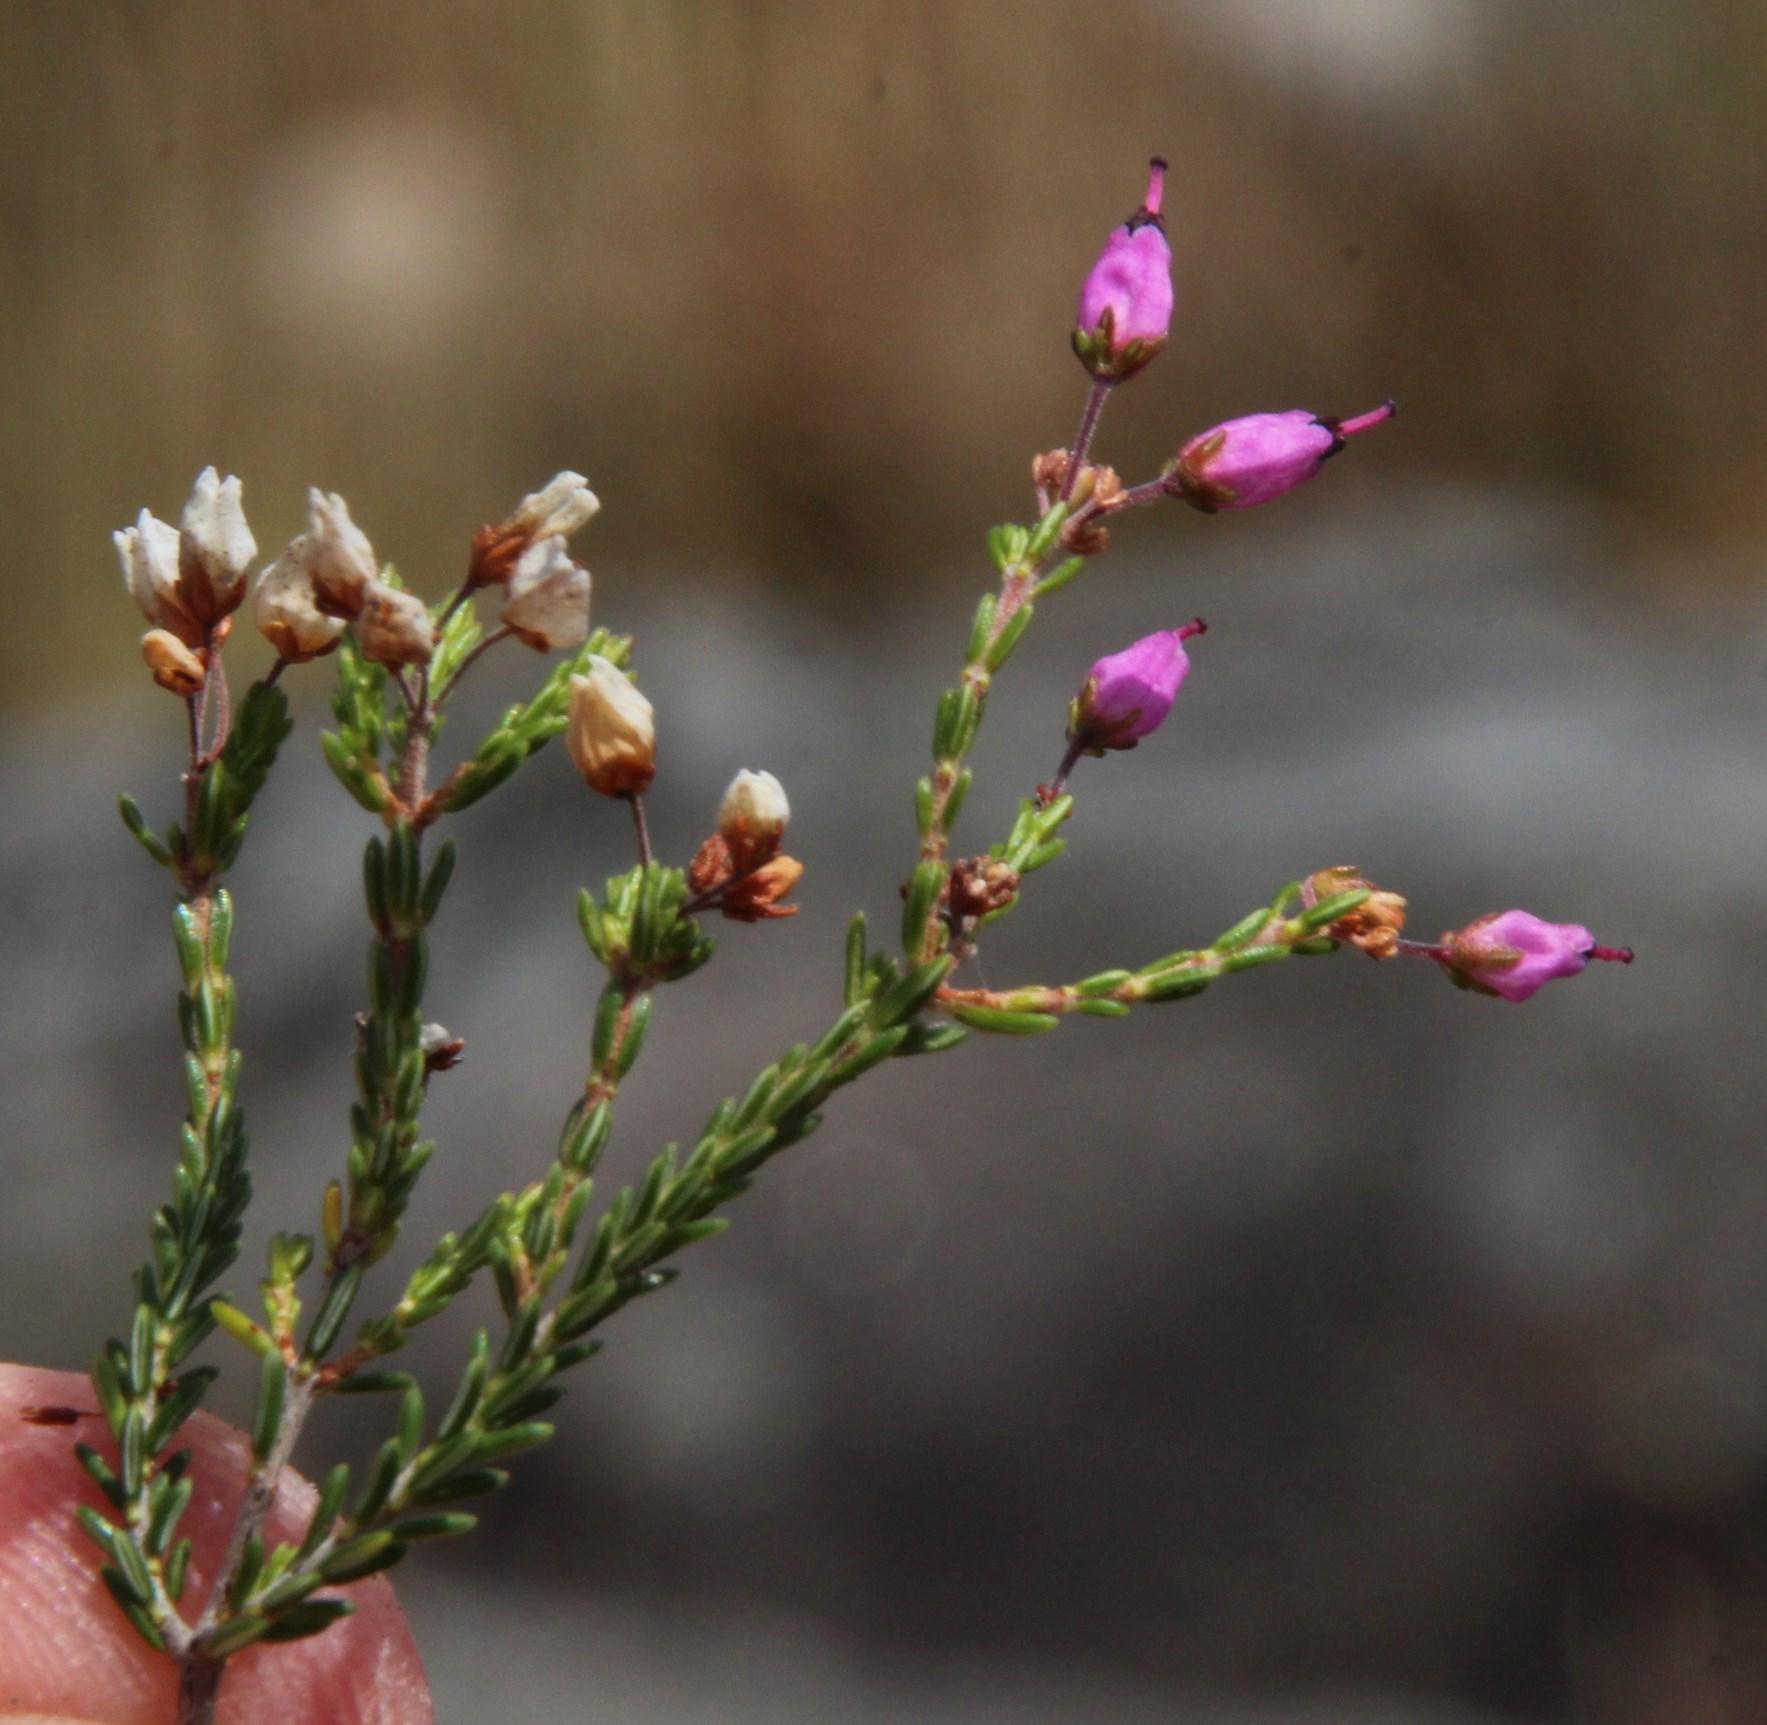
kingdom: Plantae
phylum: Tracheophyta
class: Magnoliopsida
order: Ericales
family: Ericaceae
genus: Erica
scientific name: Erica umbellata
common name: Dwarf spanish heath
